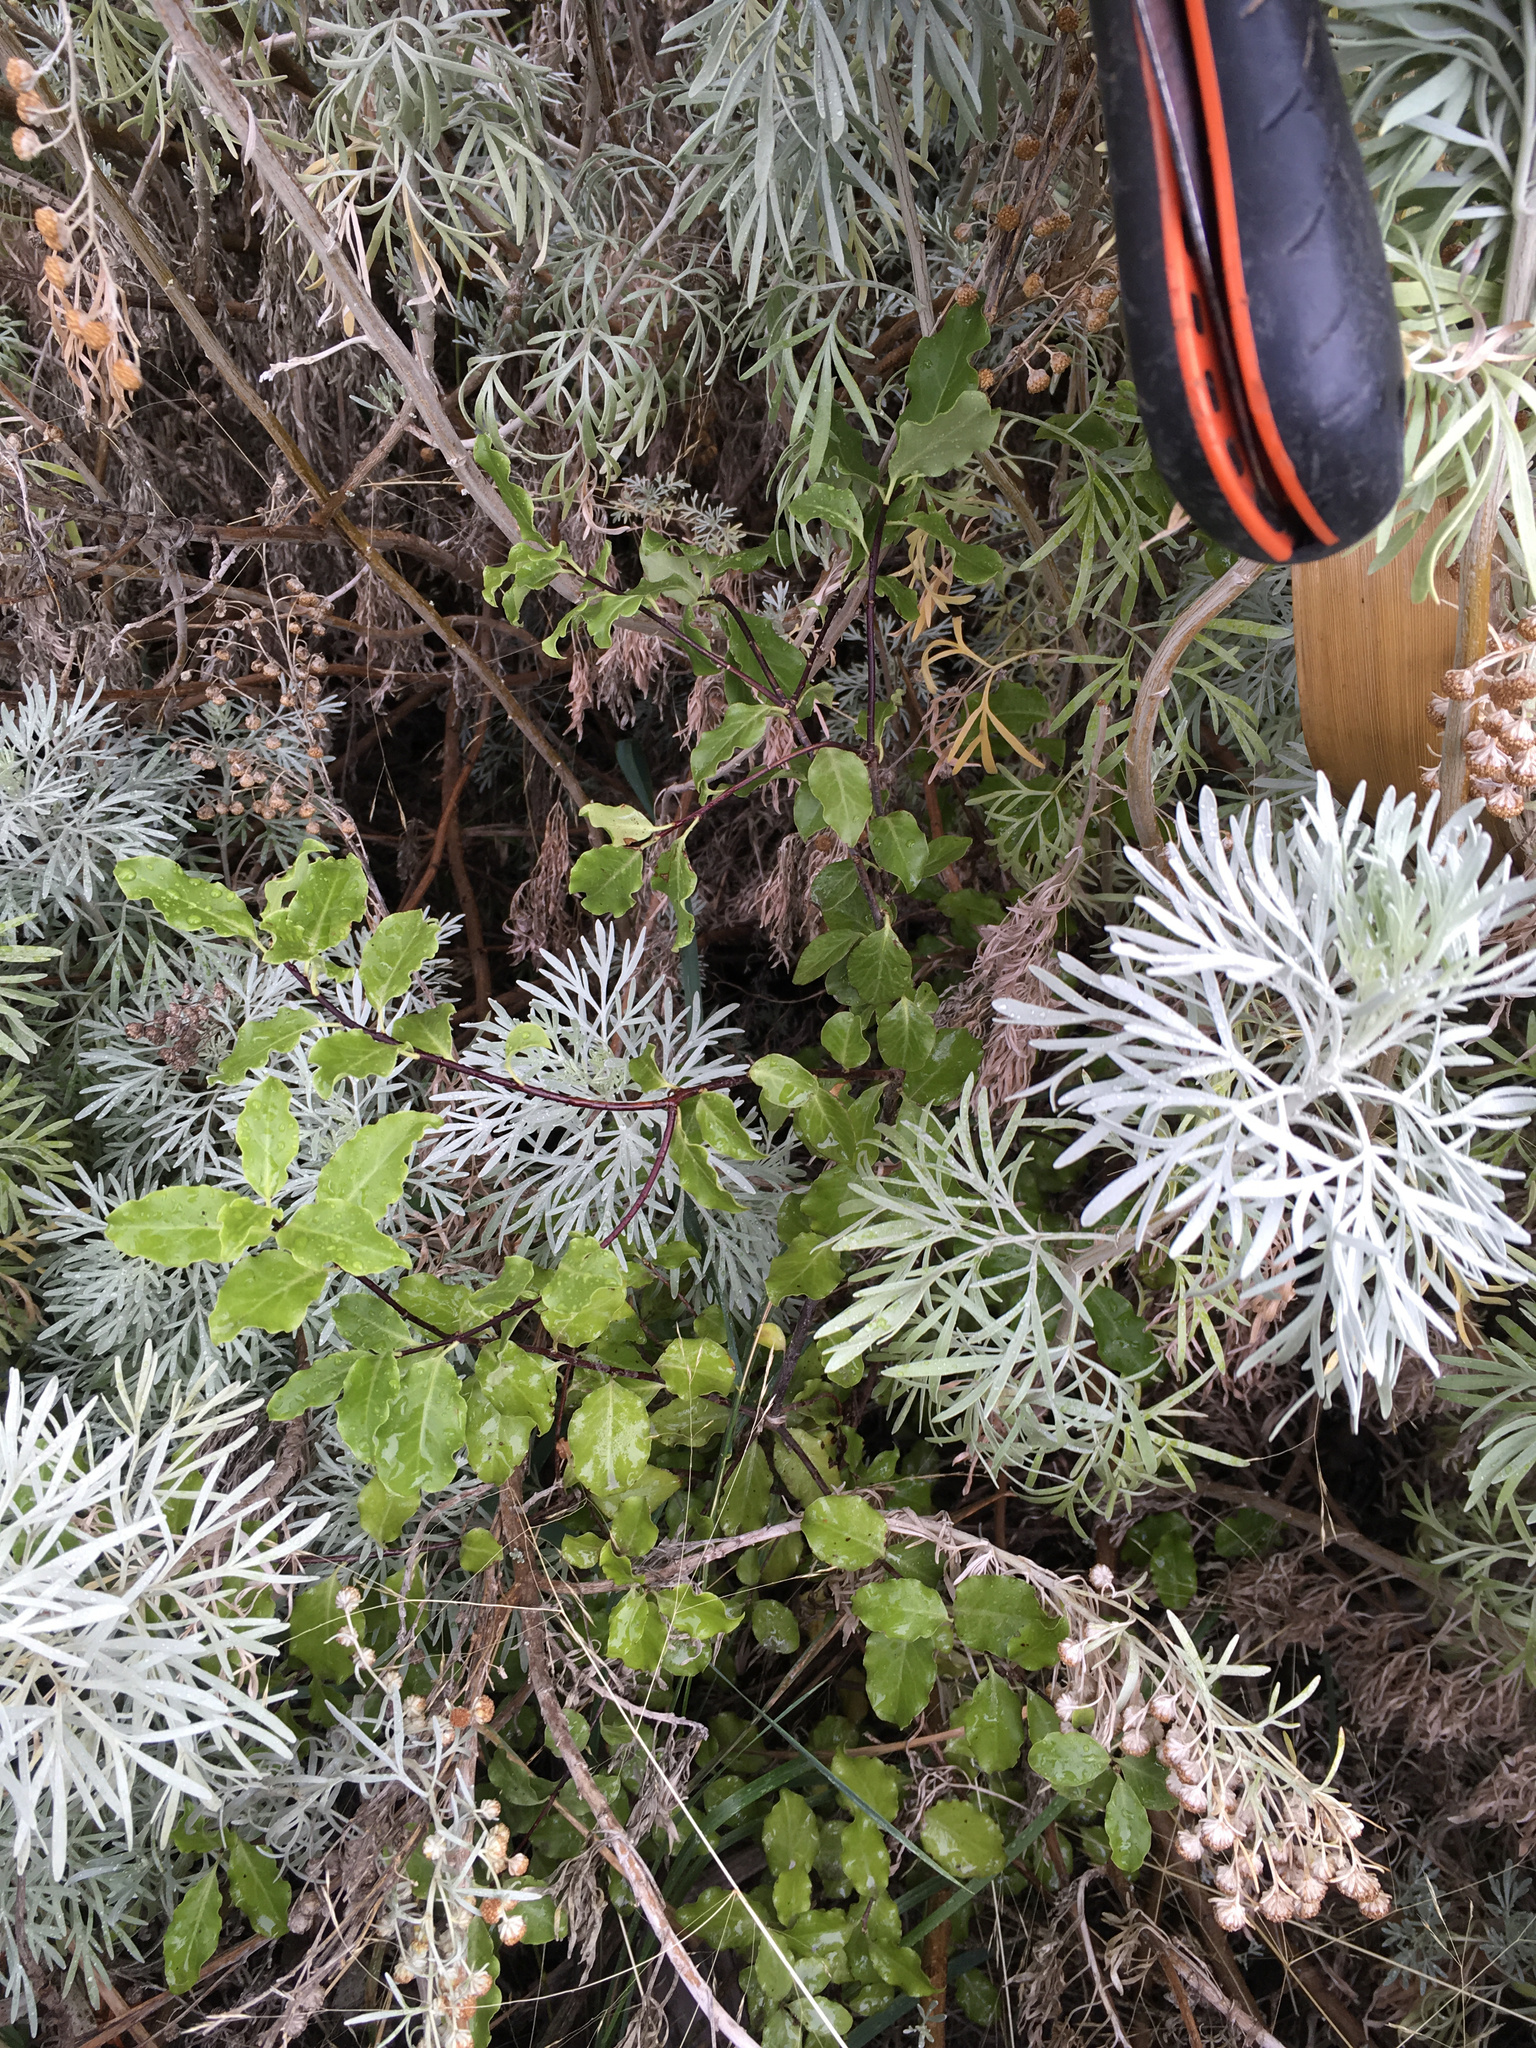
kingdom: Plantae
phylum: Tracheophyta
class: Magnoliopsida
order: Apiales
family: Pittosporaceae
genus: Pittosporum
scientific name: Pittosporum tenuifolium
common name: Kohuhu
